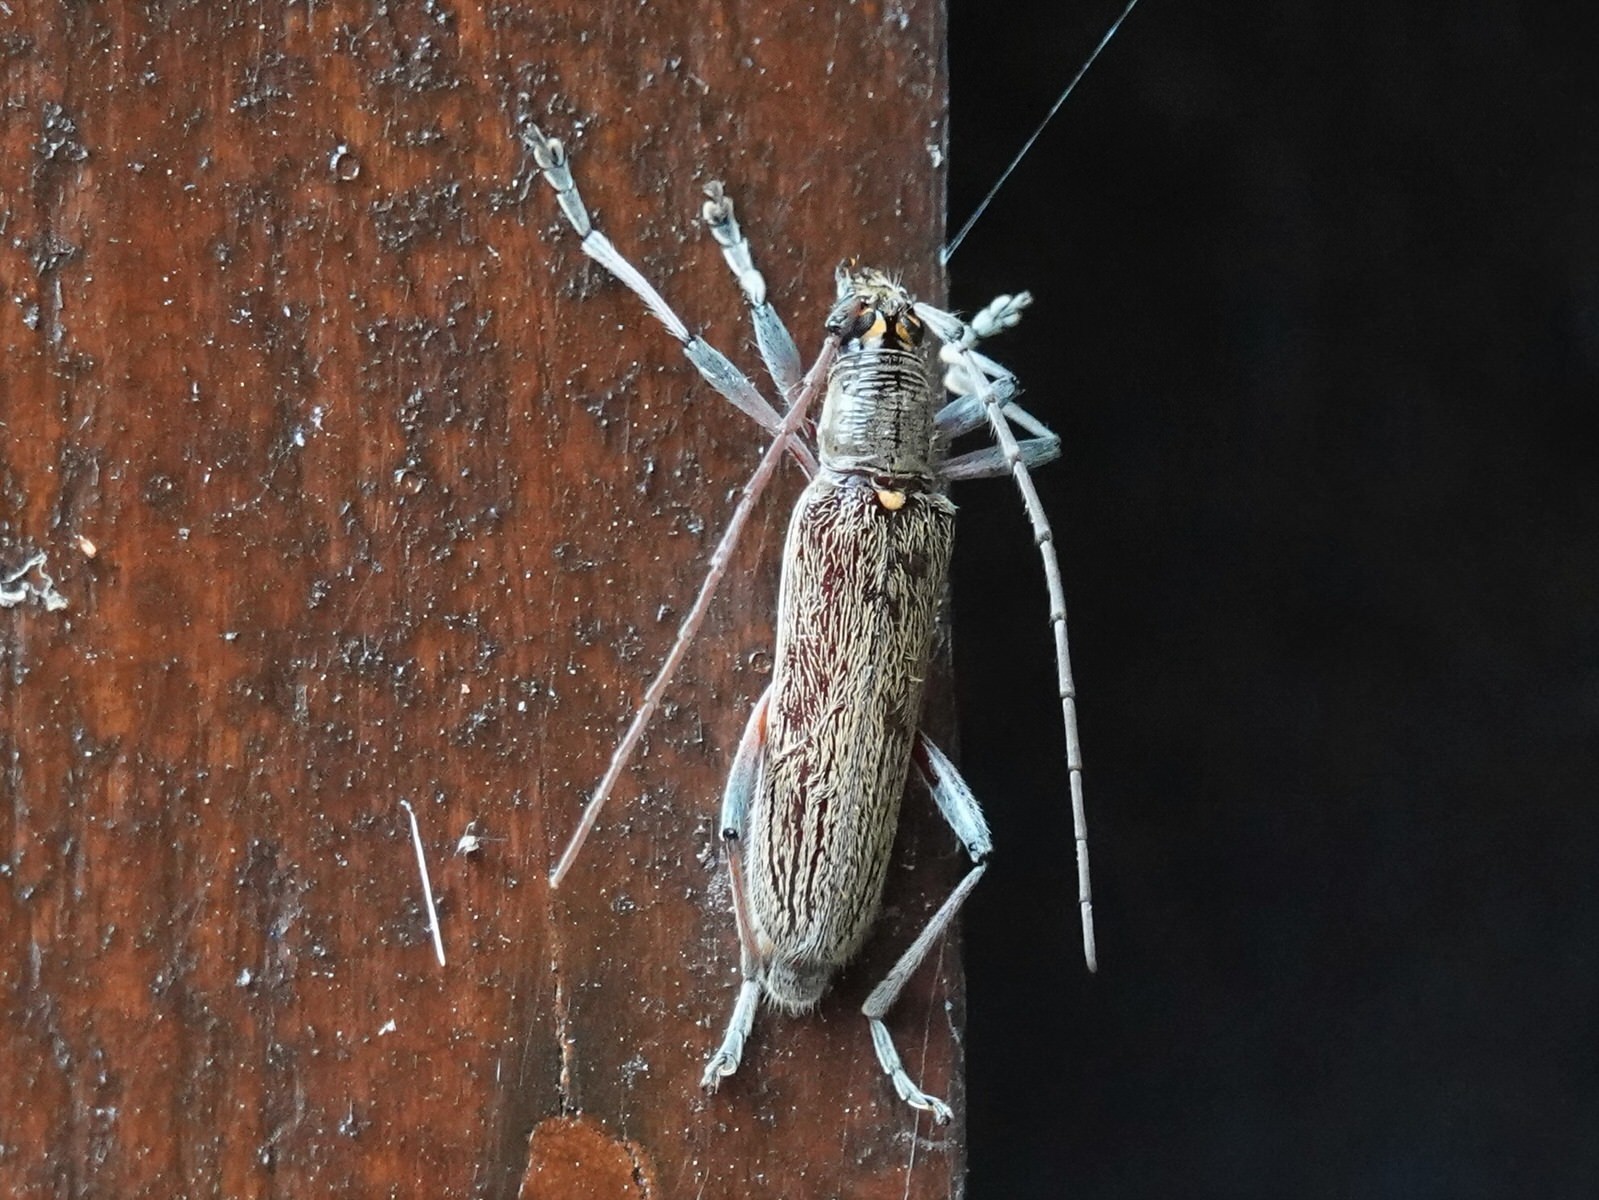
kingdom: Animalia
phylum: Arthropoda
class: Insecta
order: Coleoptera
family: Cerambycidae
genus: Oemona
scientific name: Oemona hirta
